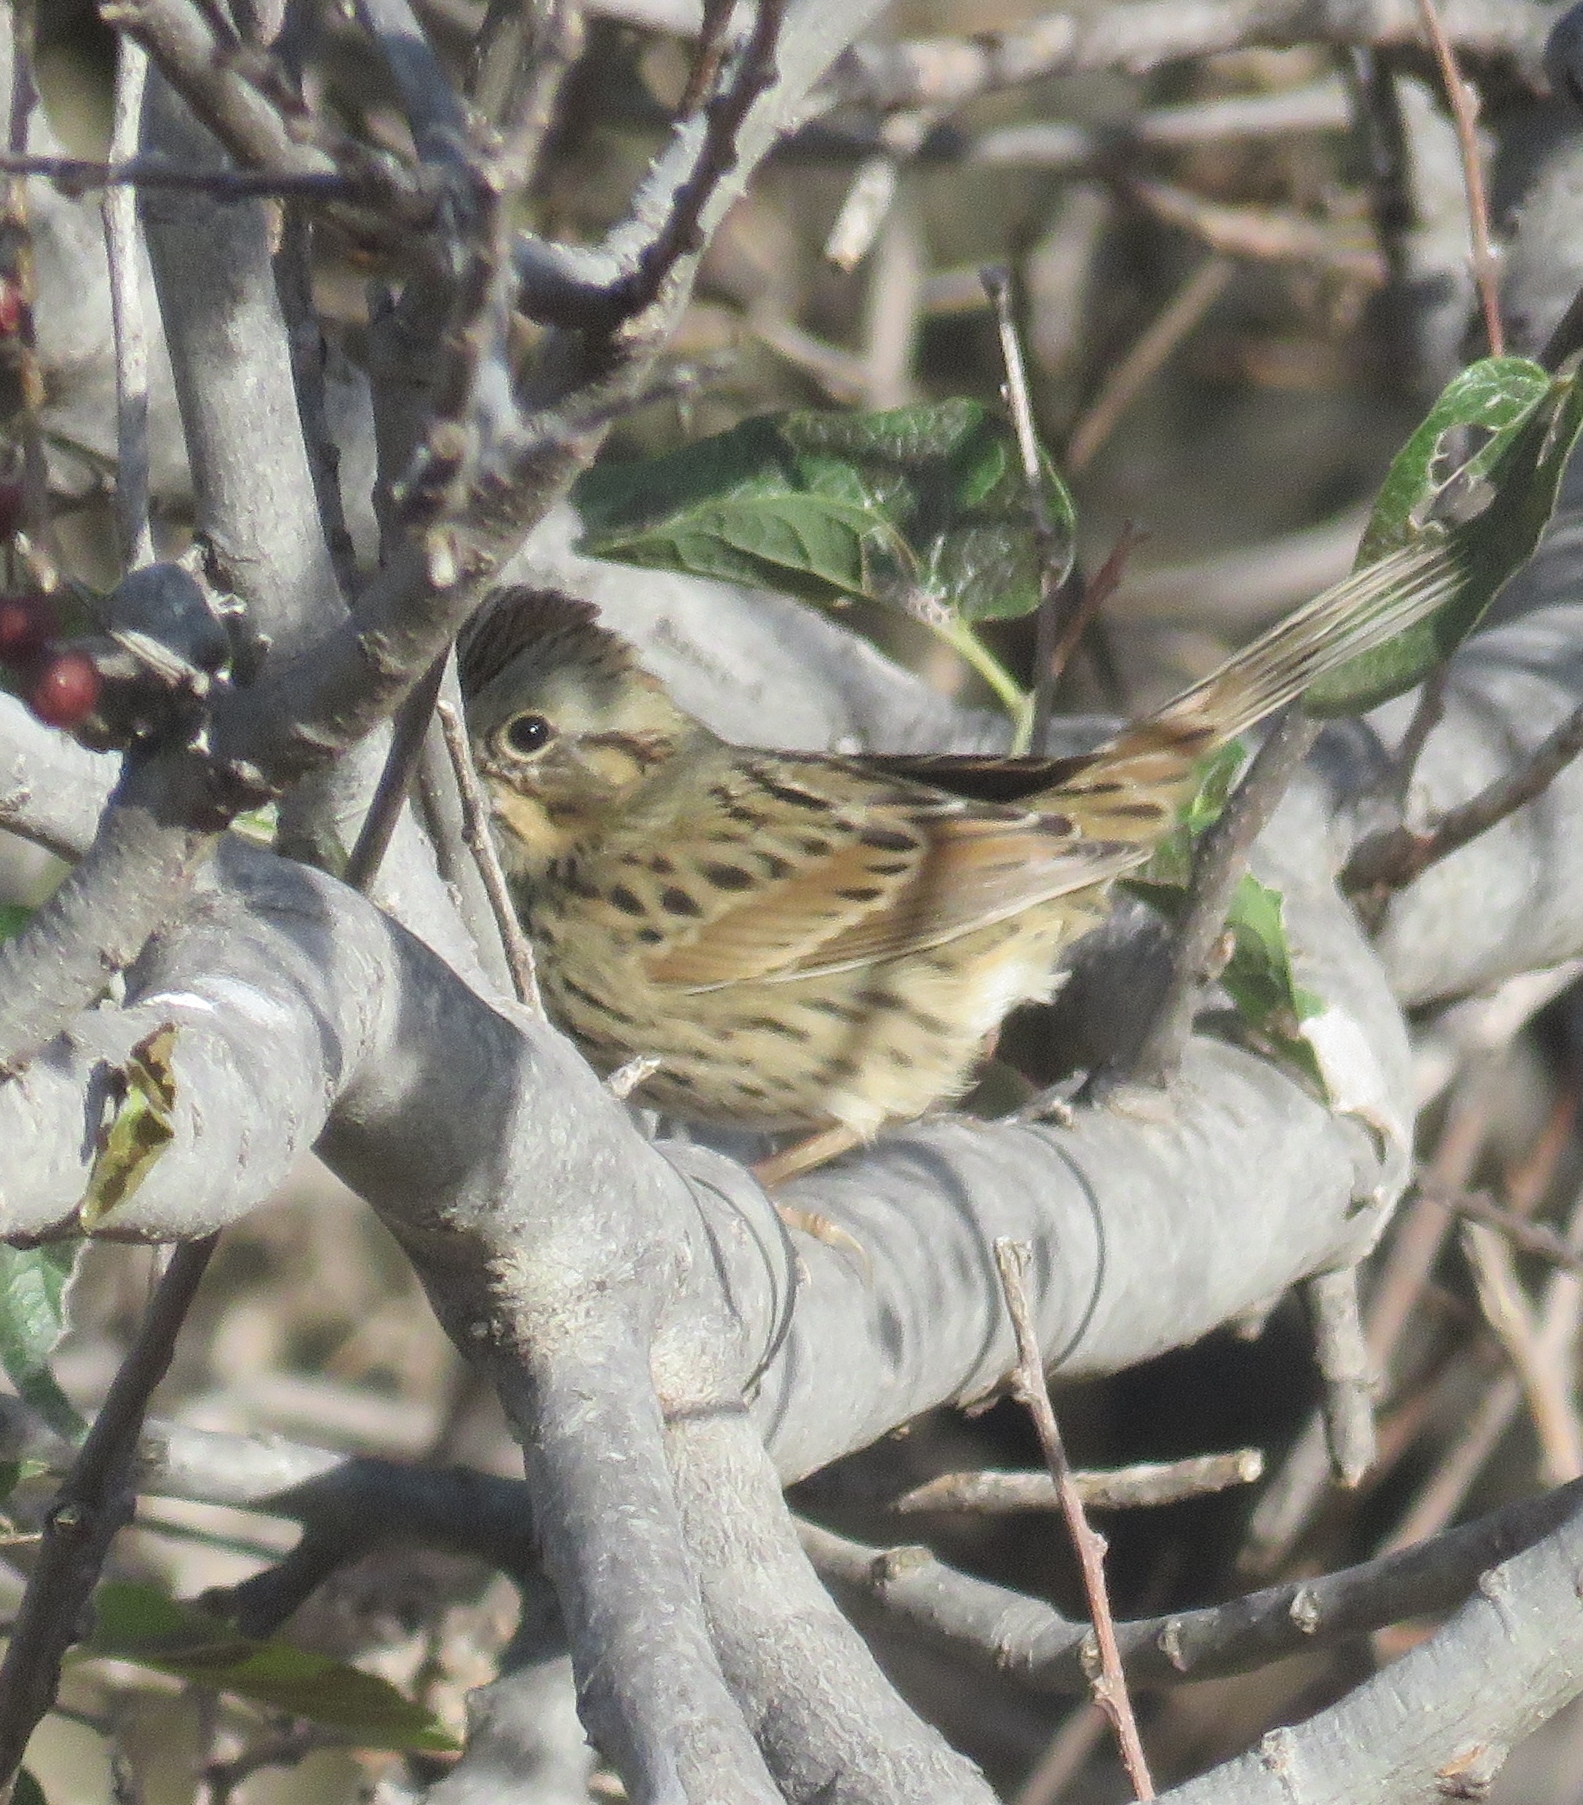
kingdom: Animalia
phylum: Chordata
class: Aves
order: Passeriformes
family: Passerellidae
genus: Melospiza
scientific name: Melospiza lincolnii
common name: Lincoln's sparrow
